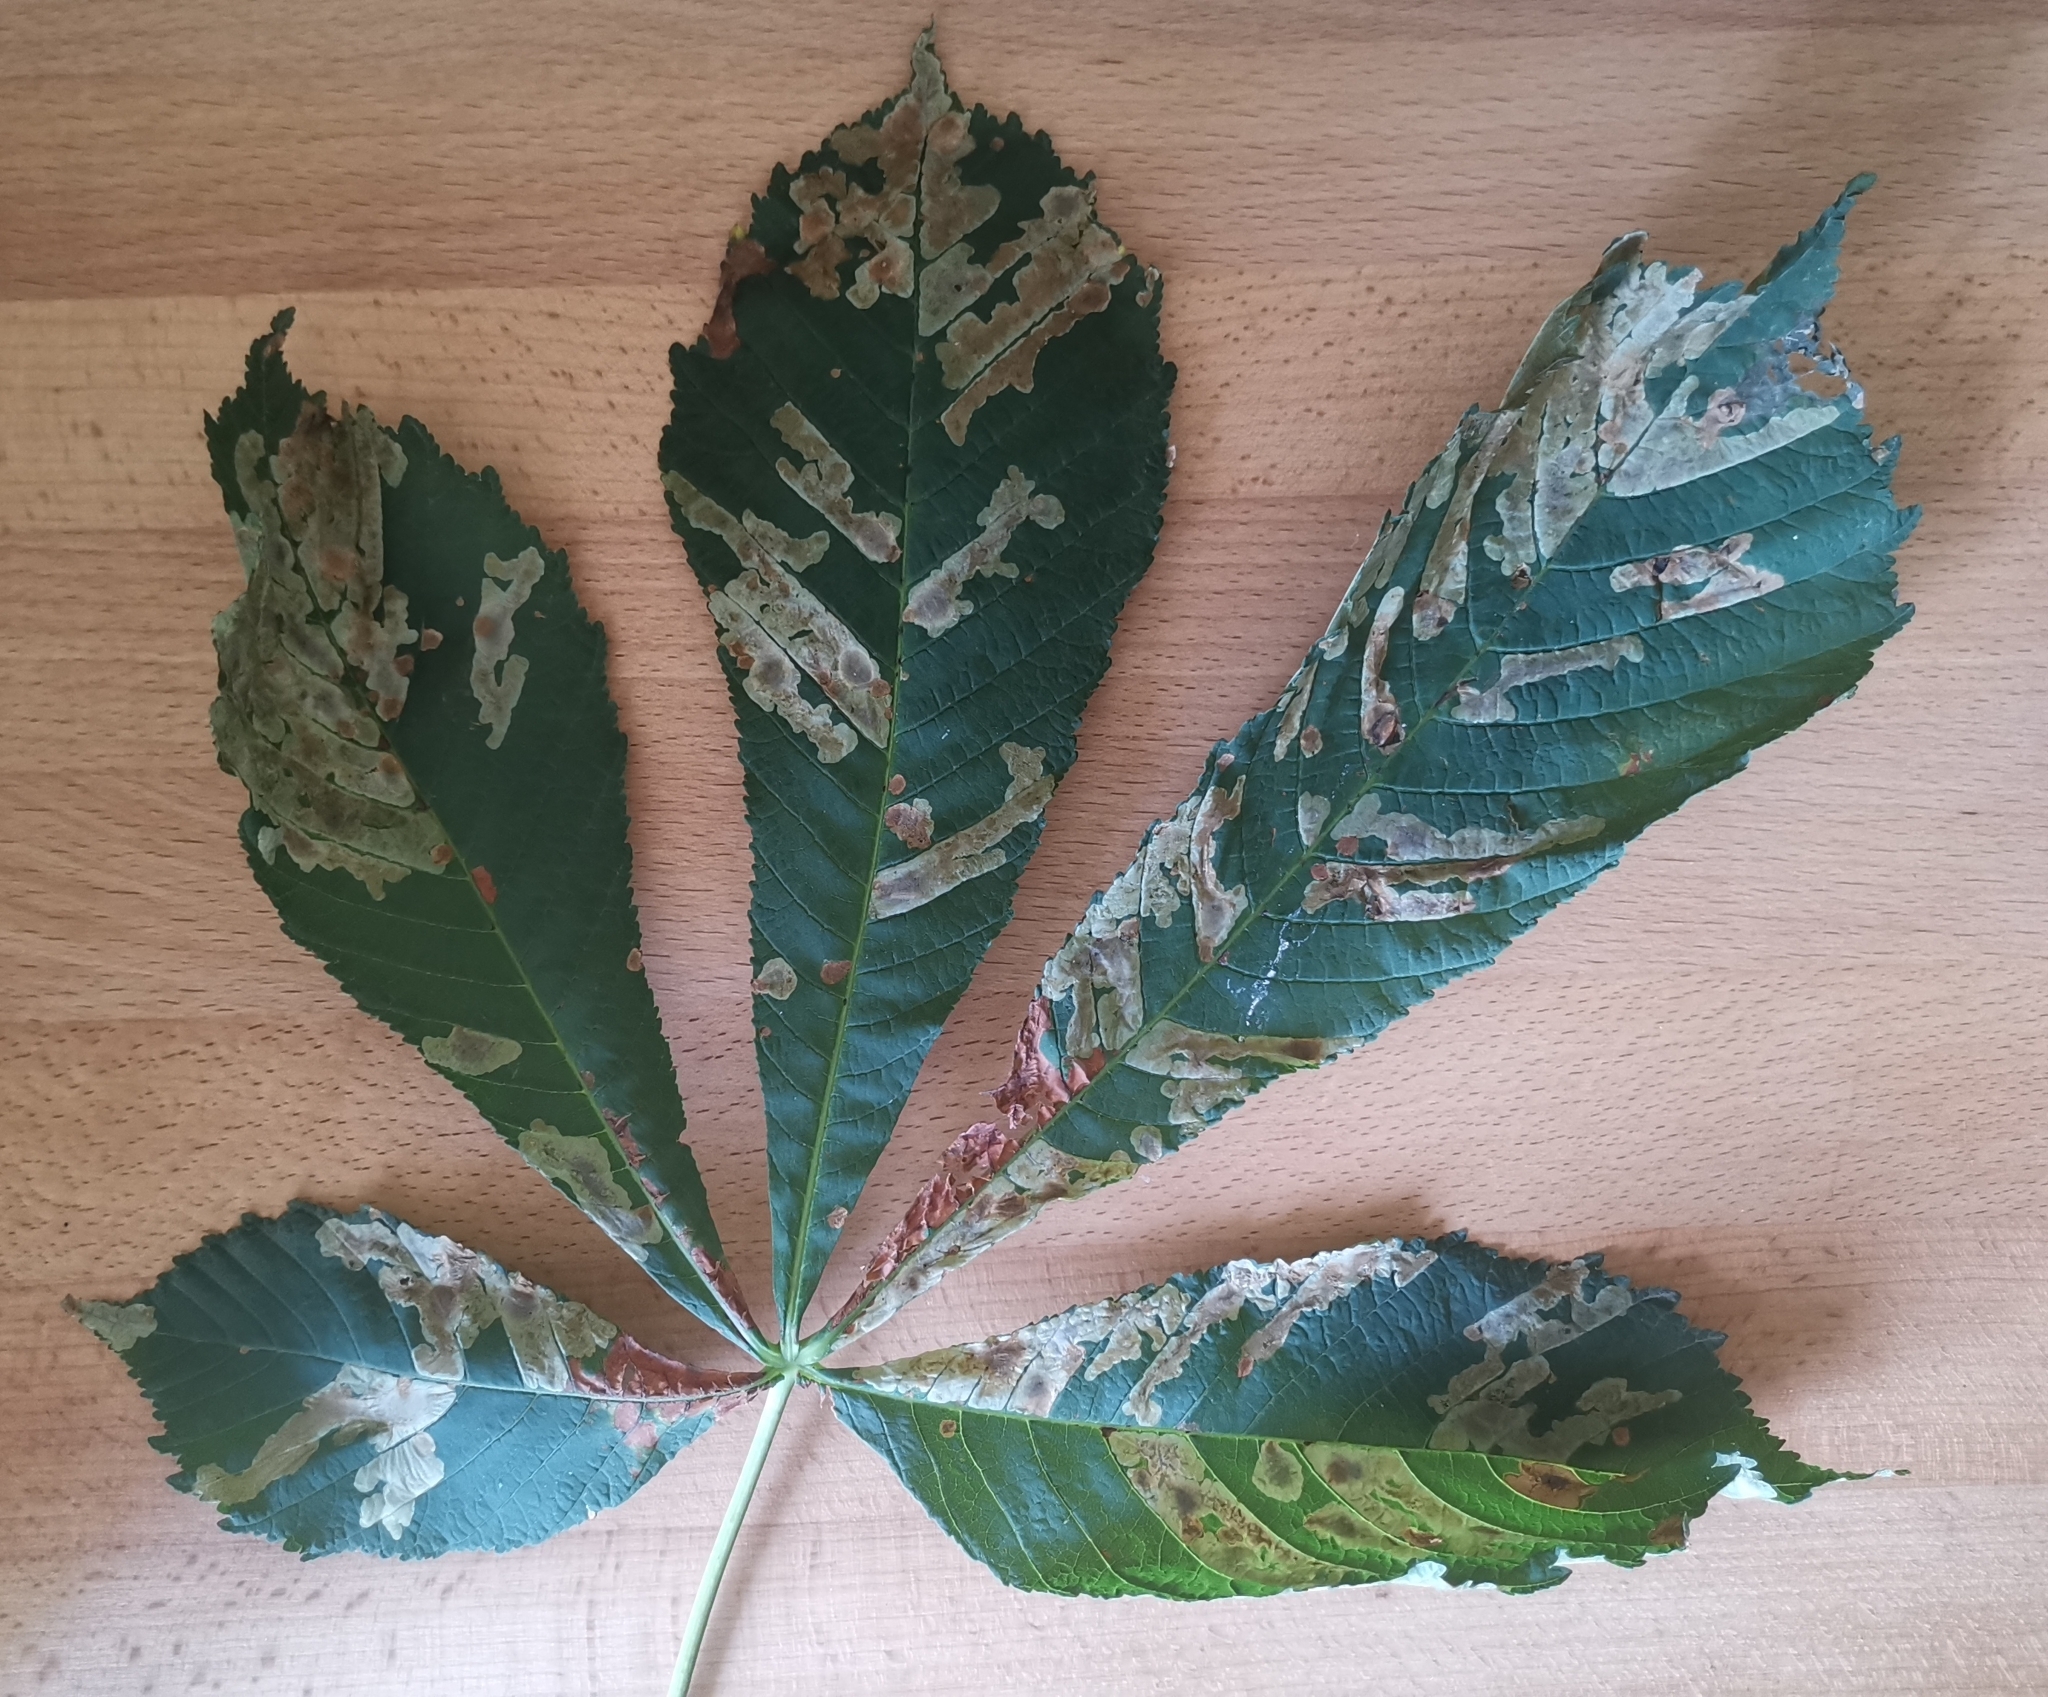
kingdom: Animalia
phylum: Arthropoda
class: Insecta
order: Lepidoptera
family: Gracillariidae
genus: Cameraria
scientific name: Cameraria ohridella
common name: Horse-chestnut leaf-miner
